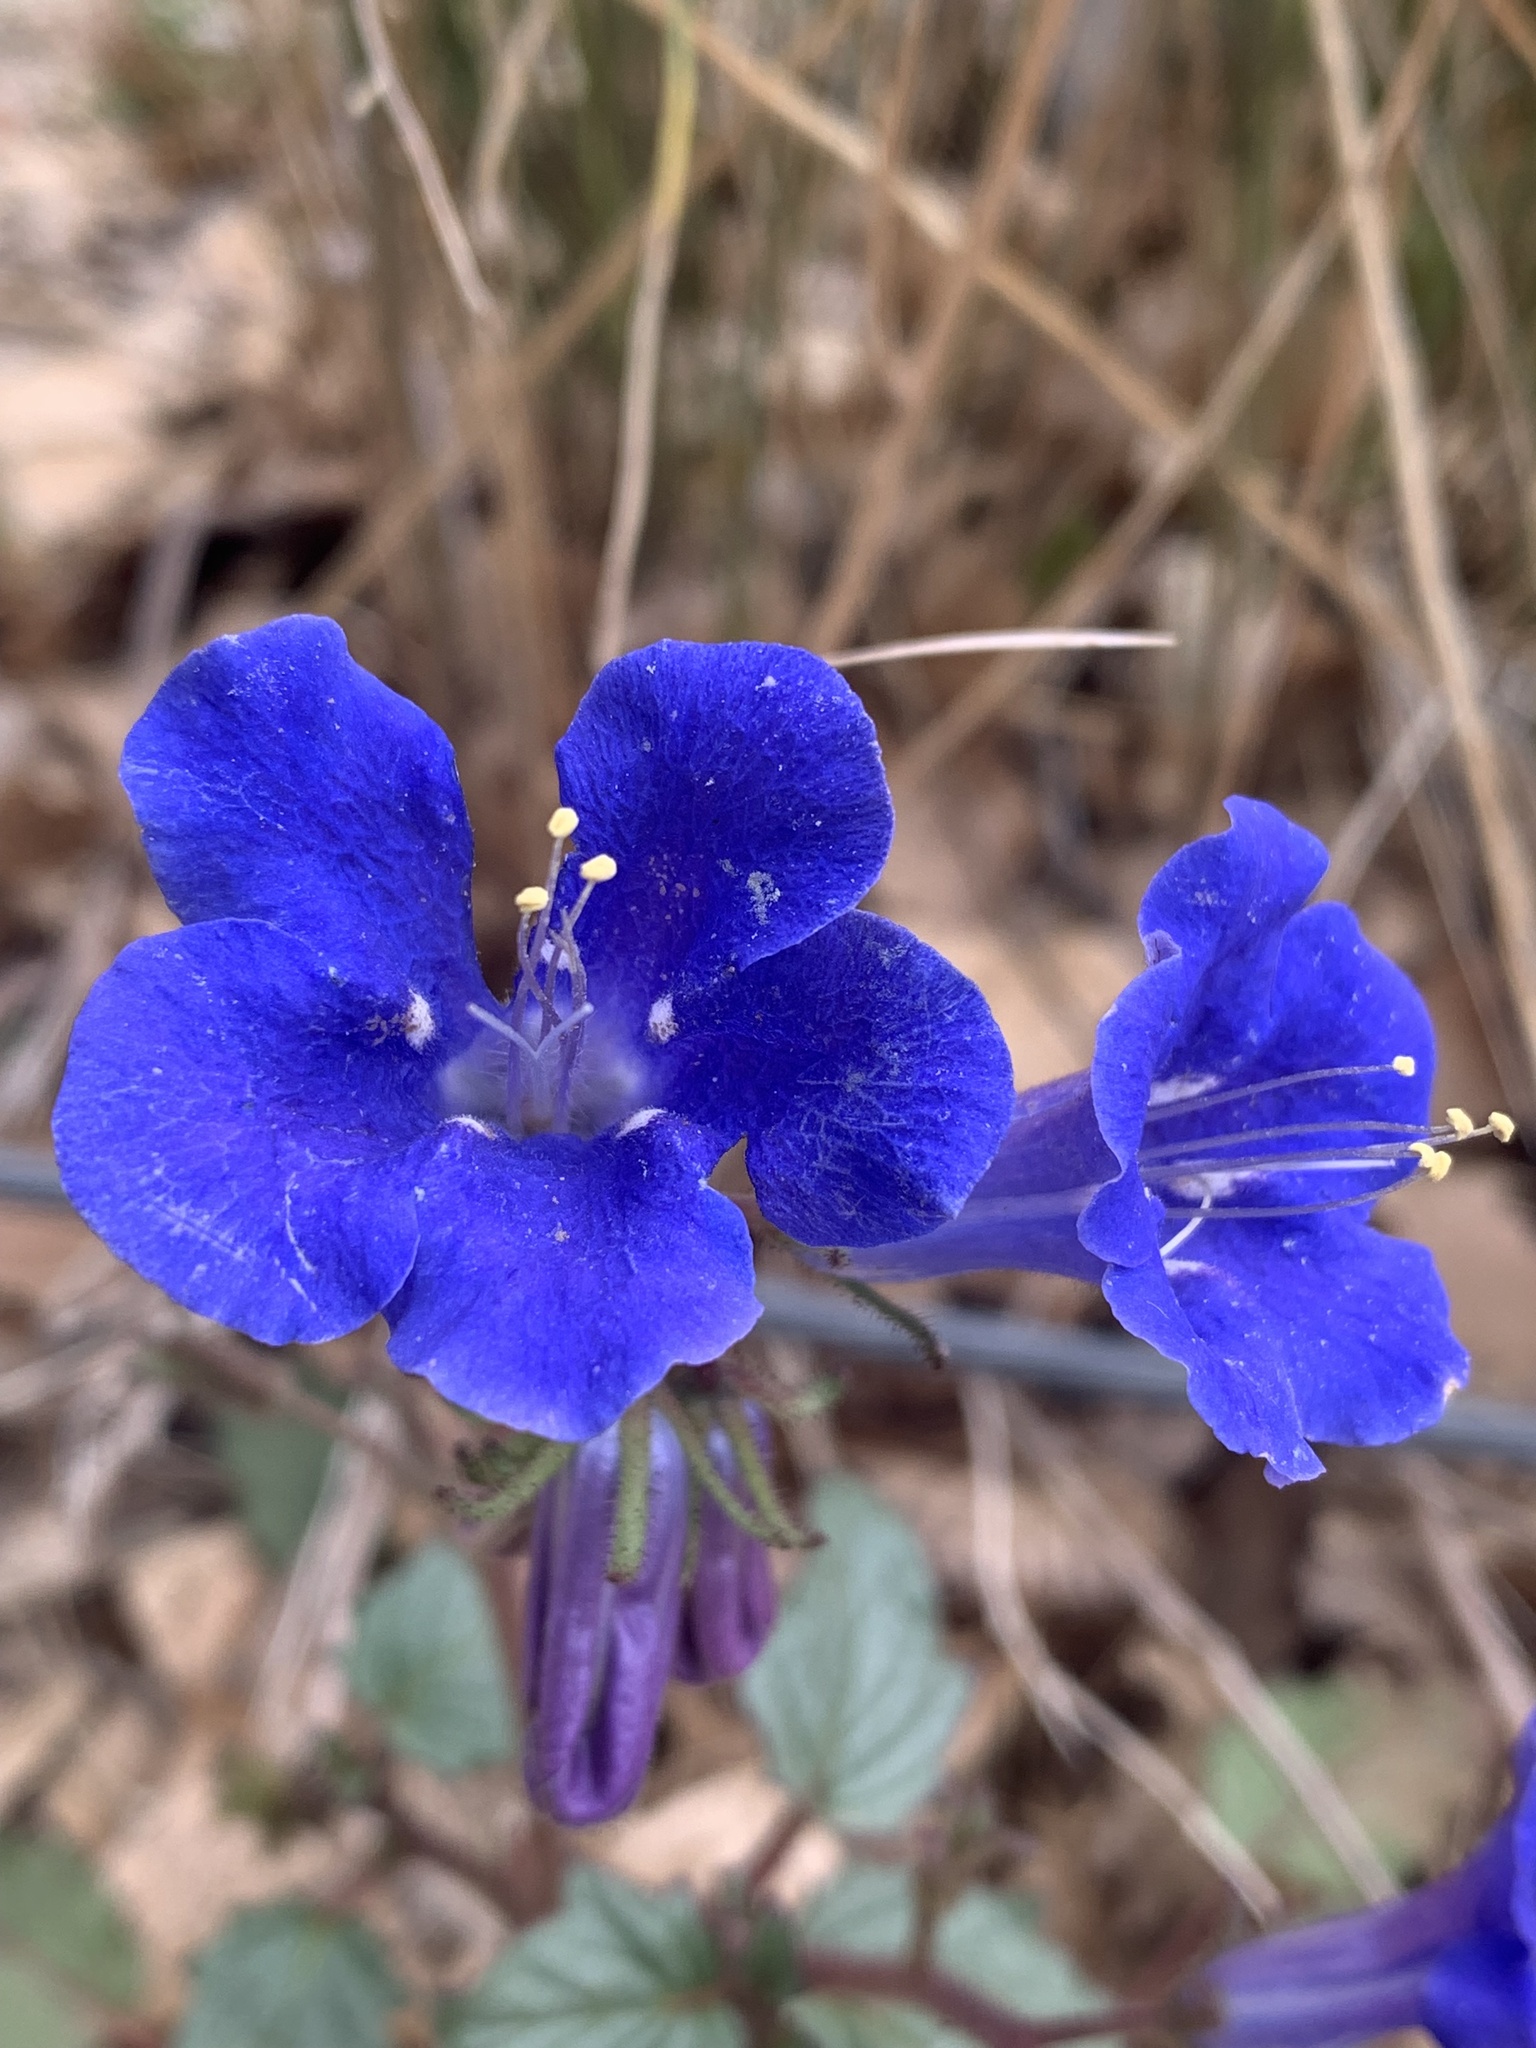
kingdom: Plantae
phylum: Tracheophyta
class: Magnoliopsida
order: Boraginales
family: Hydrophyllaceae
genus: Phacelia
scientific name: Phacelia campanularia
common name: California bluebell
